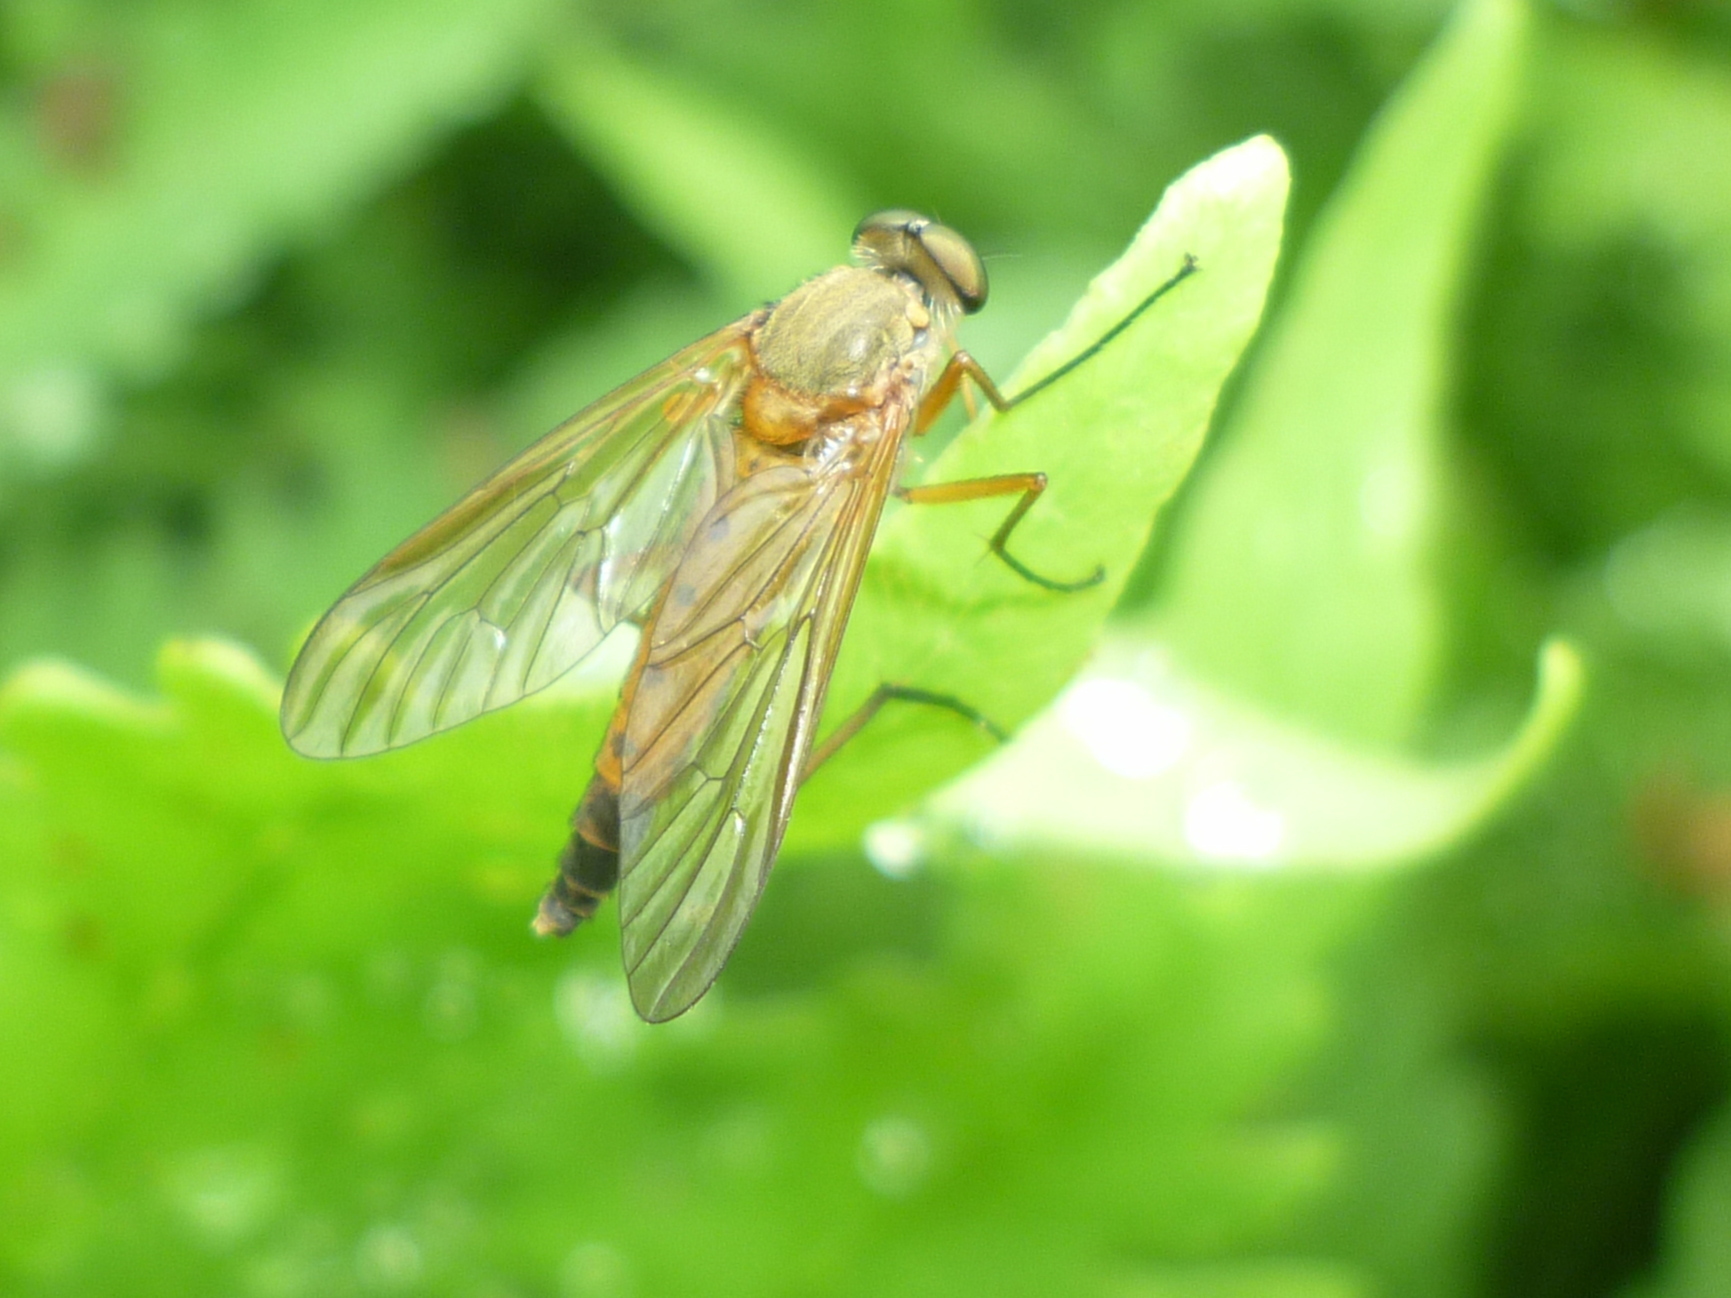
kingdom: Animalia
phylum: Arthropoda
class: Insecta
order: Diptera
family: Rhagionidae
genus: Rhagio
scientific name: Rhagio tringaria
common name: Marsh snipefly
